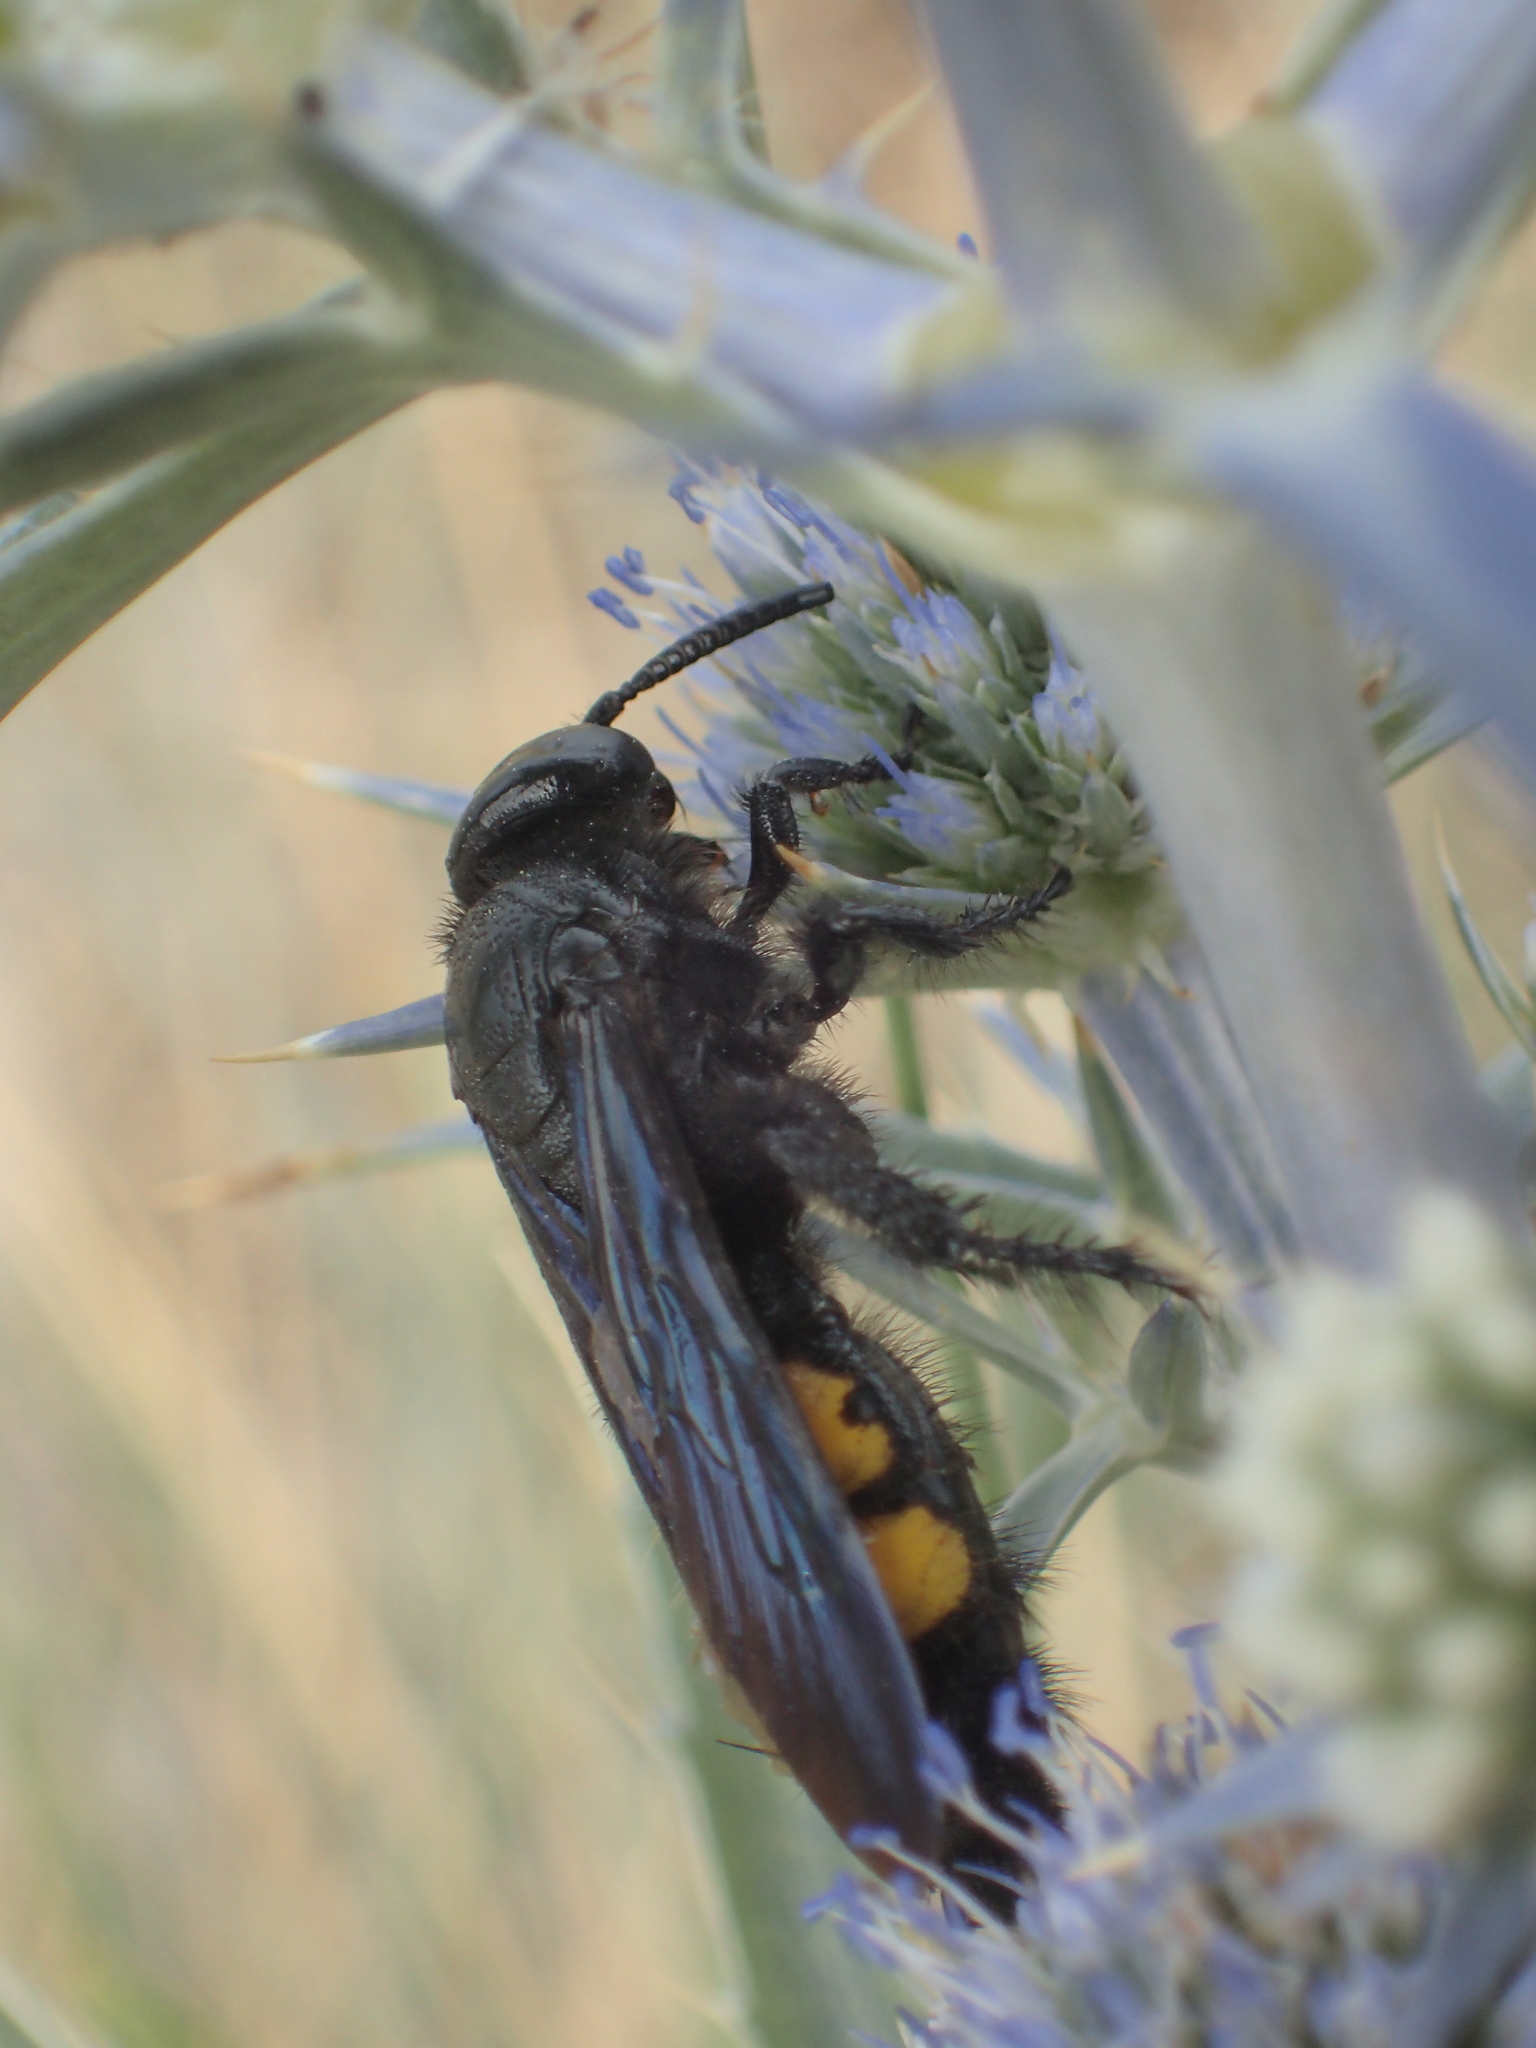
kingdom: Animalia
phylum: Arthropoda
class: Insecta
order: Hymenoptera
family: Scoliidae
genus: Scolia
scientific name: Scolia hirta
